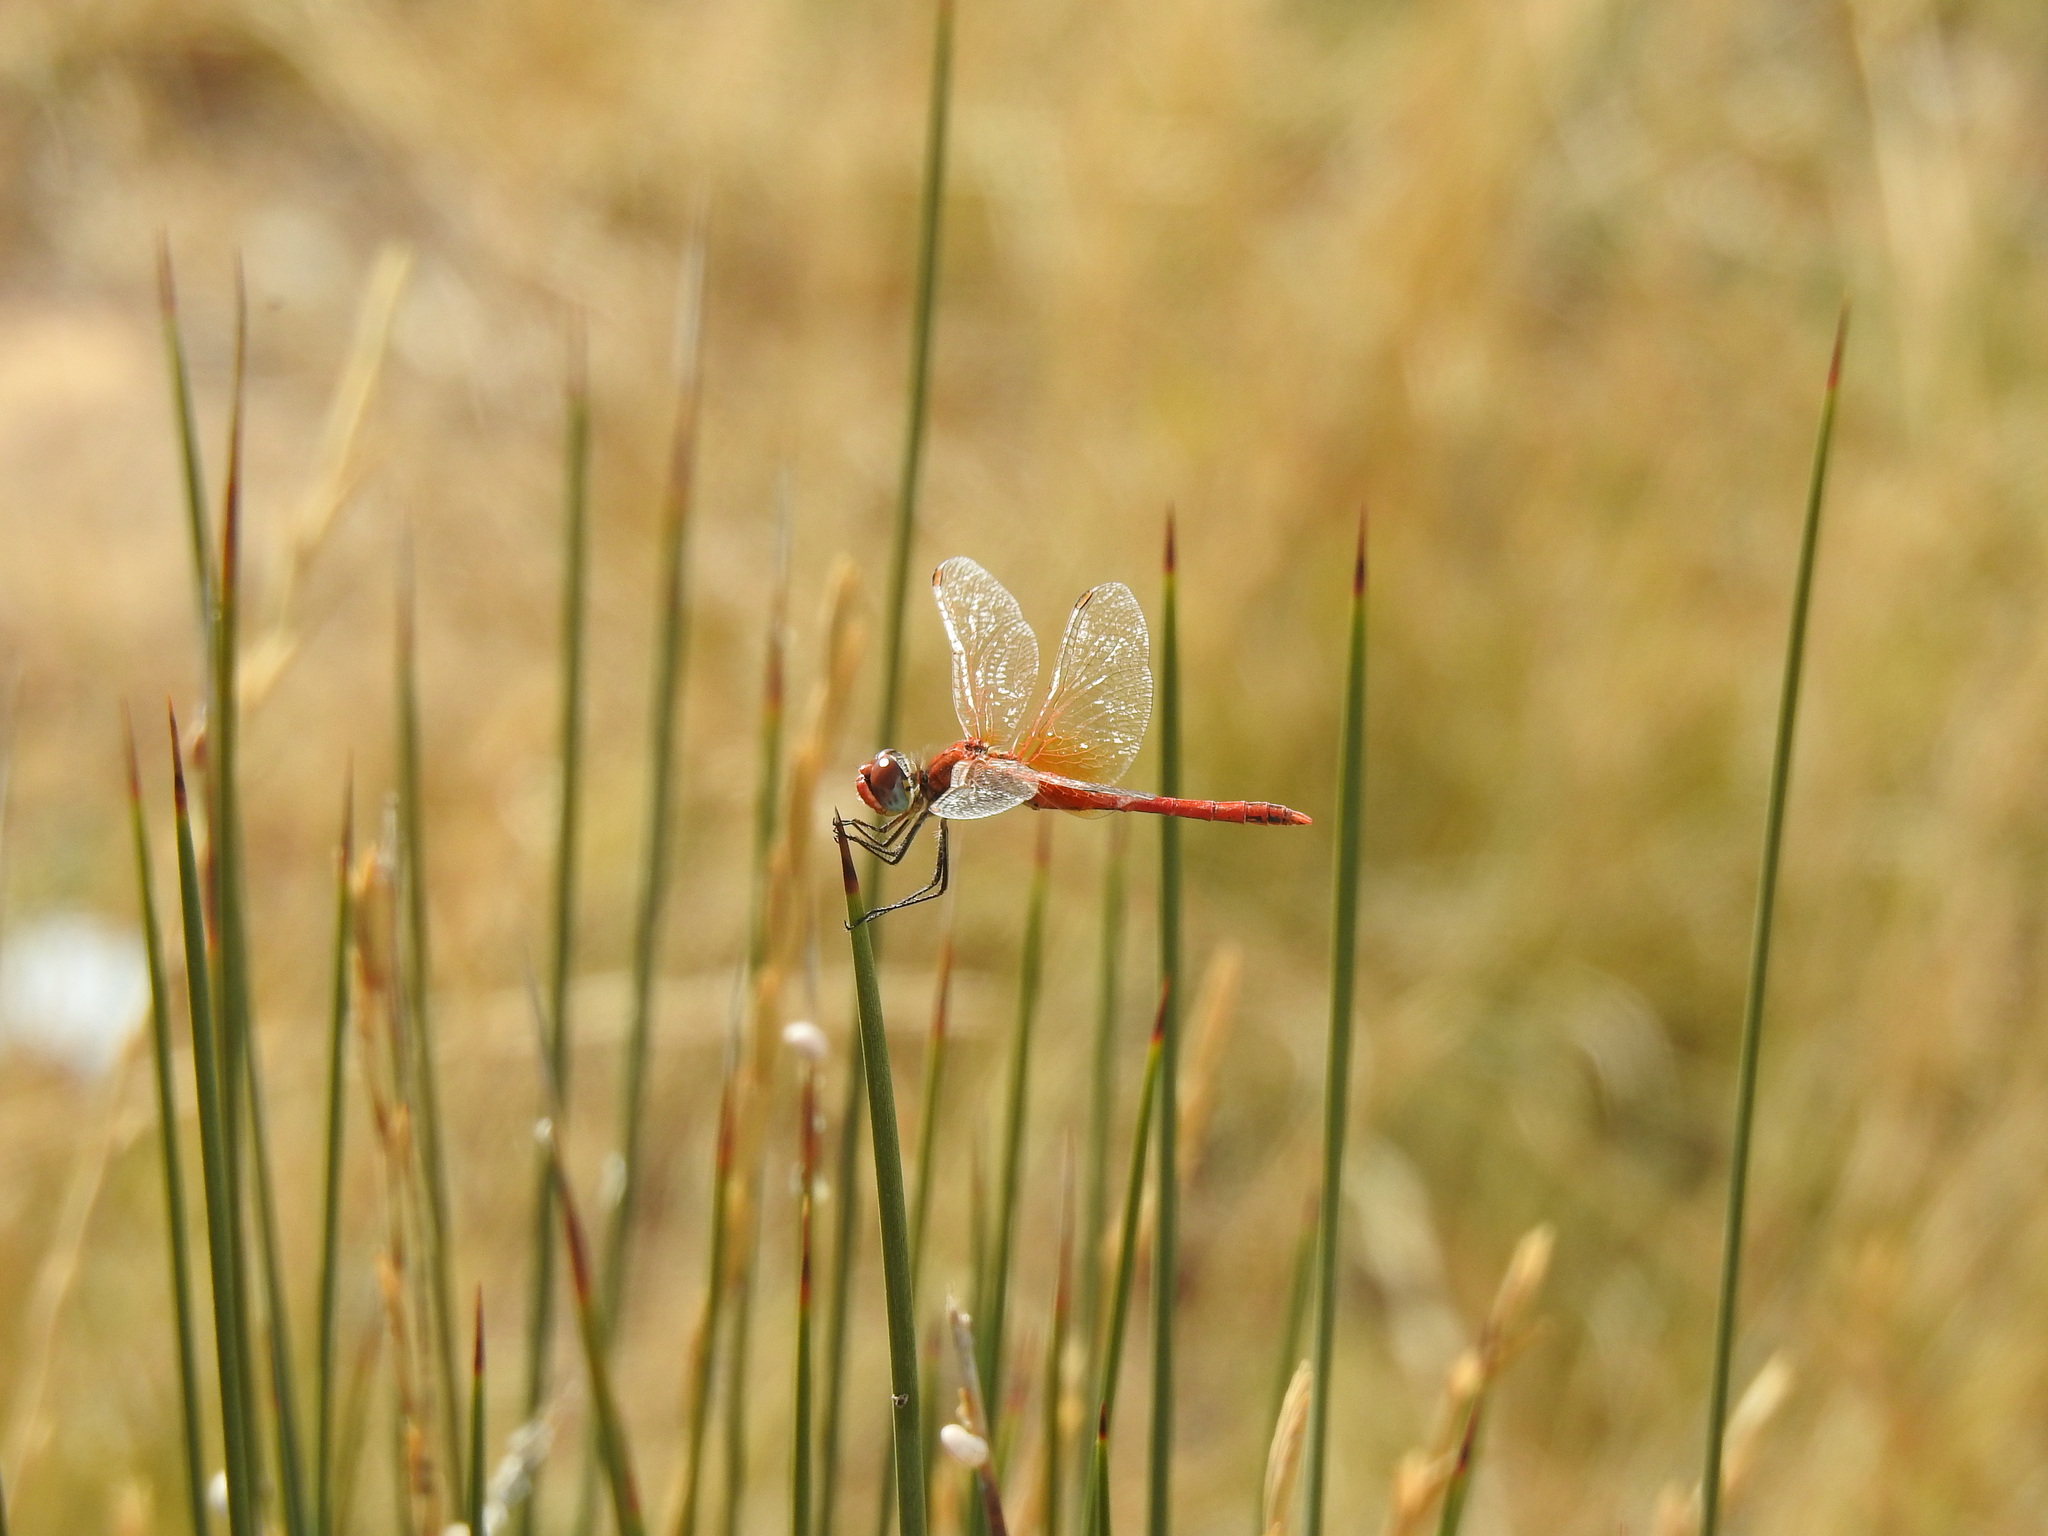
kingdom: Animalia
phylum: Arthropoda
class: Insecta
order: Odonata
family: Libellulidae
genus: Sympetrum
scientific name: Sympetrum fonscolombii
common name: Red-veined darter
